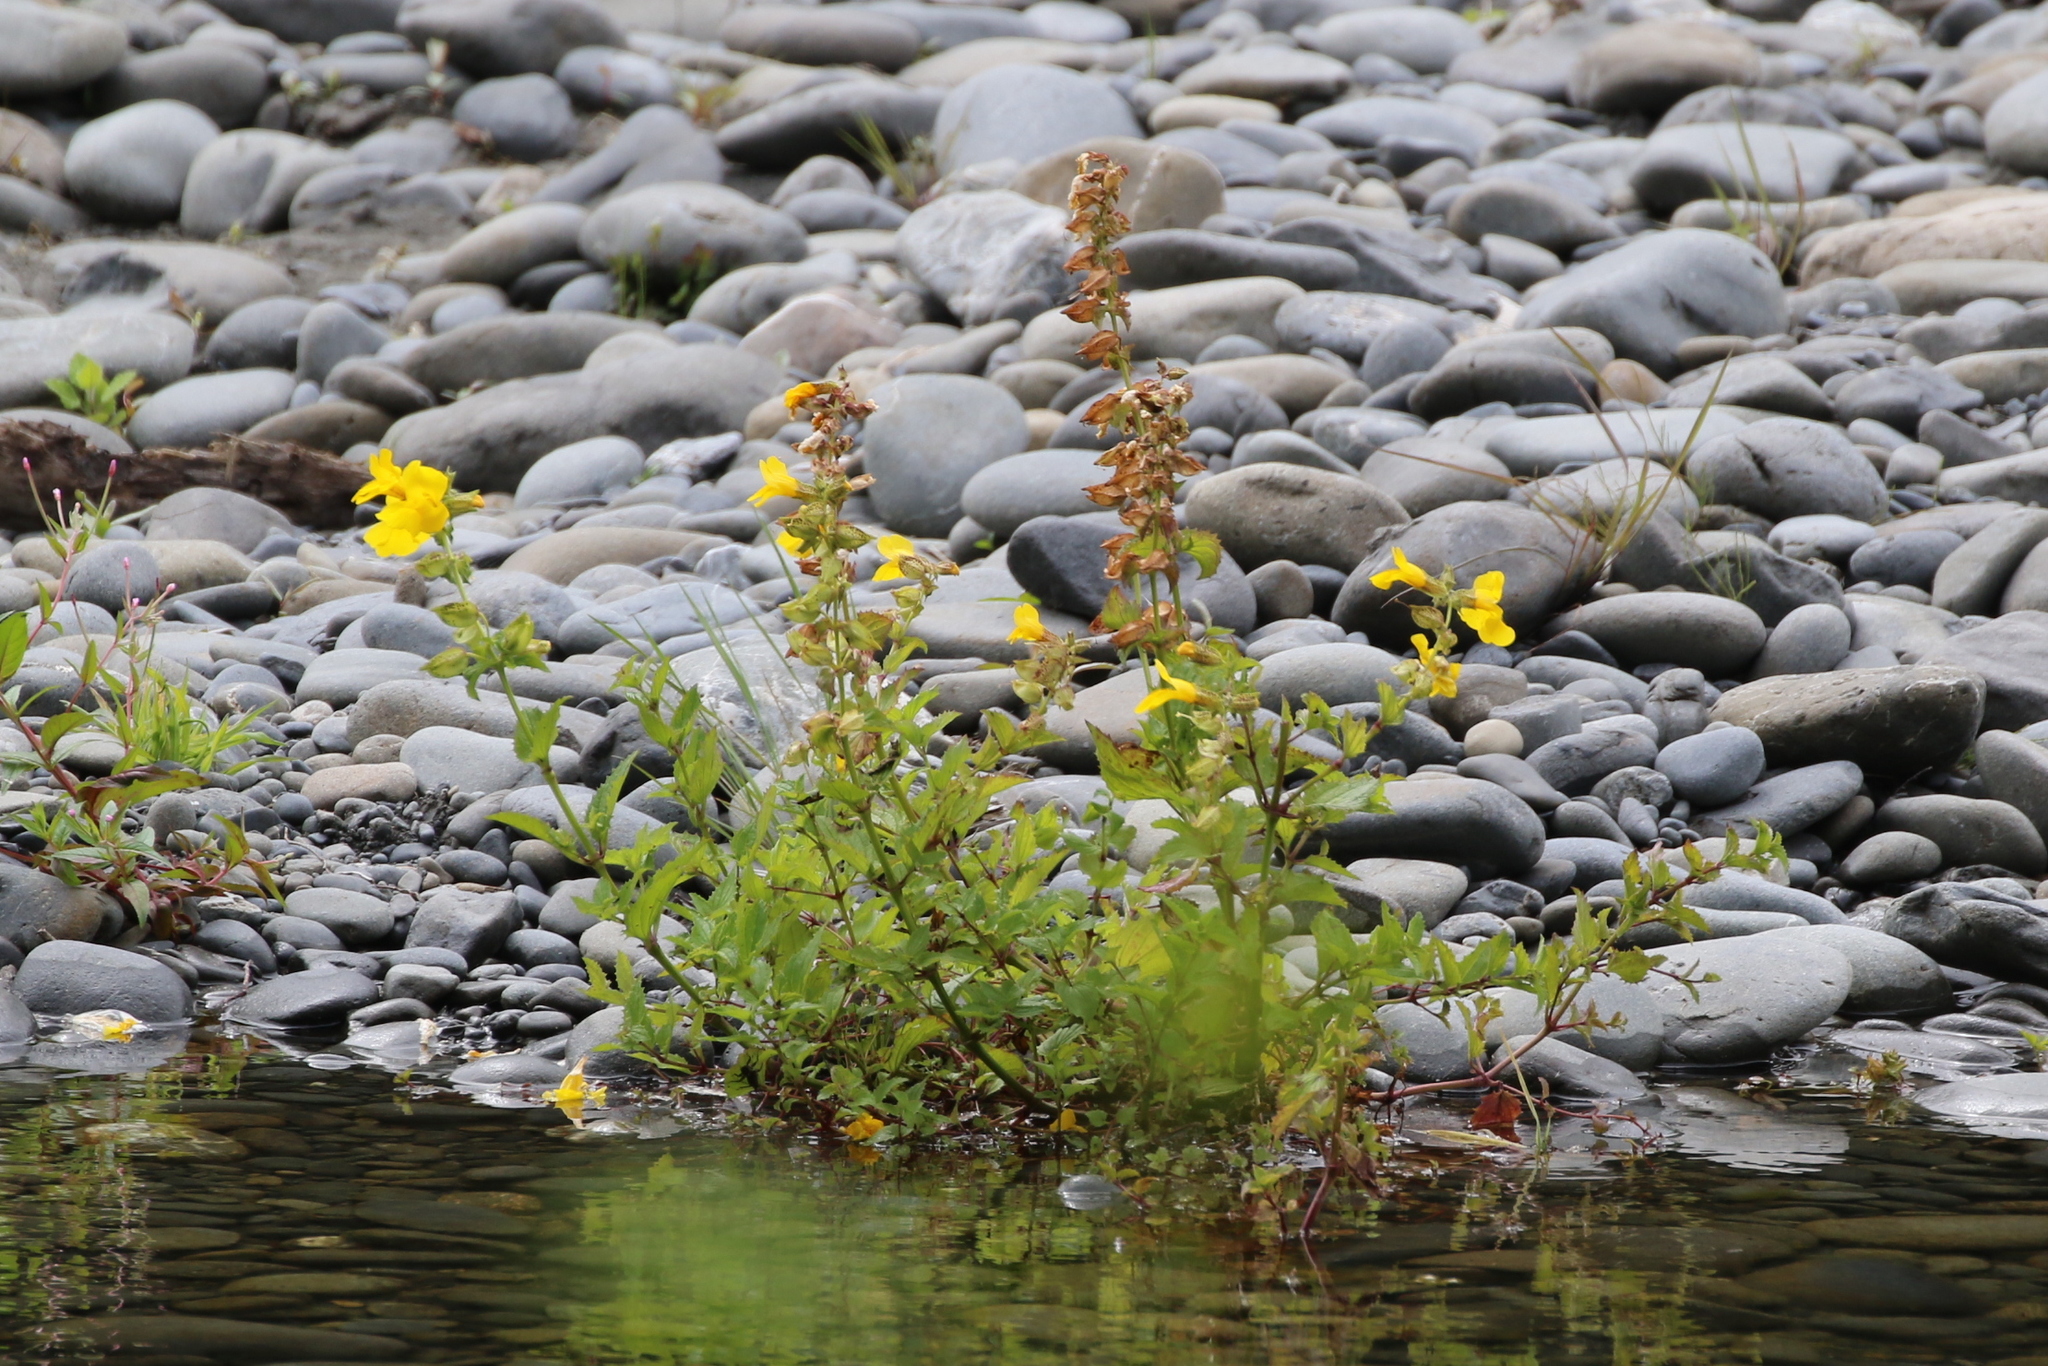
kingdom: Plantae
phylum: Tracheophyta
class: Magnoliopsida
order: Lamiales
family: Phrymaceae
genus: Erythranthe
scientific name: Erythranthe decora
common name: Mannered monkeyflower
